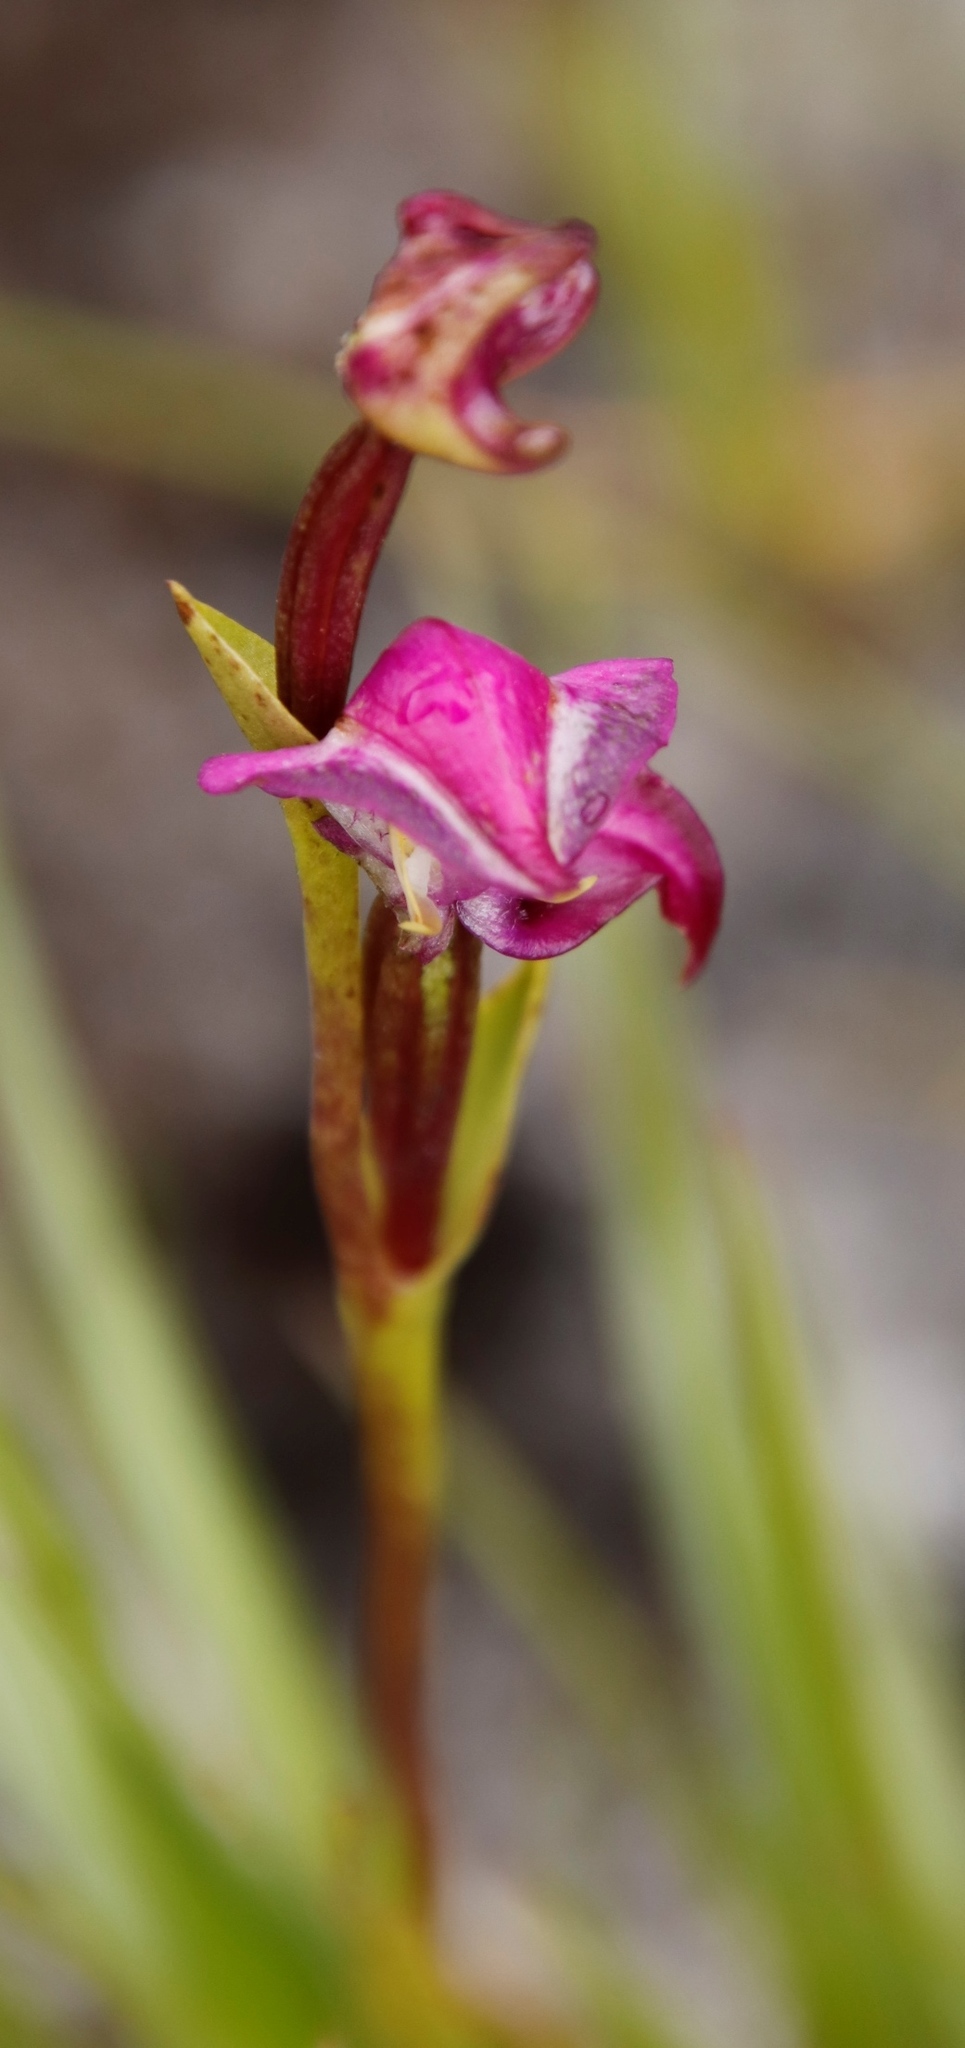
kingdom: Plantae
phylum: Tracheophyta
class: Liliopsida
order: Asparagales
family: Orchidaceae
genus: Disperis
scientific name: Disperis paludosa
